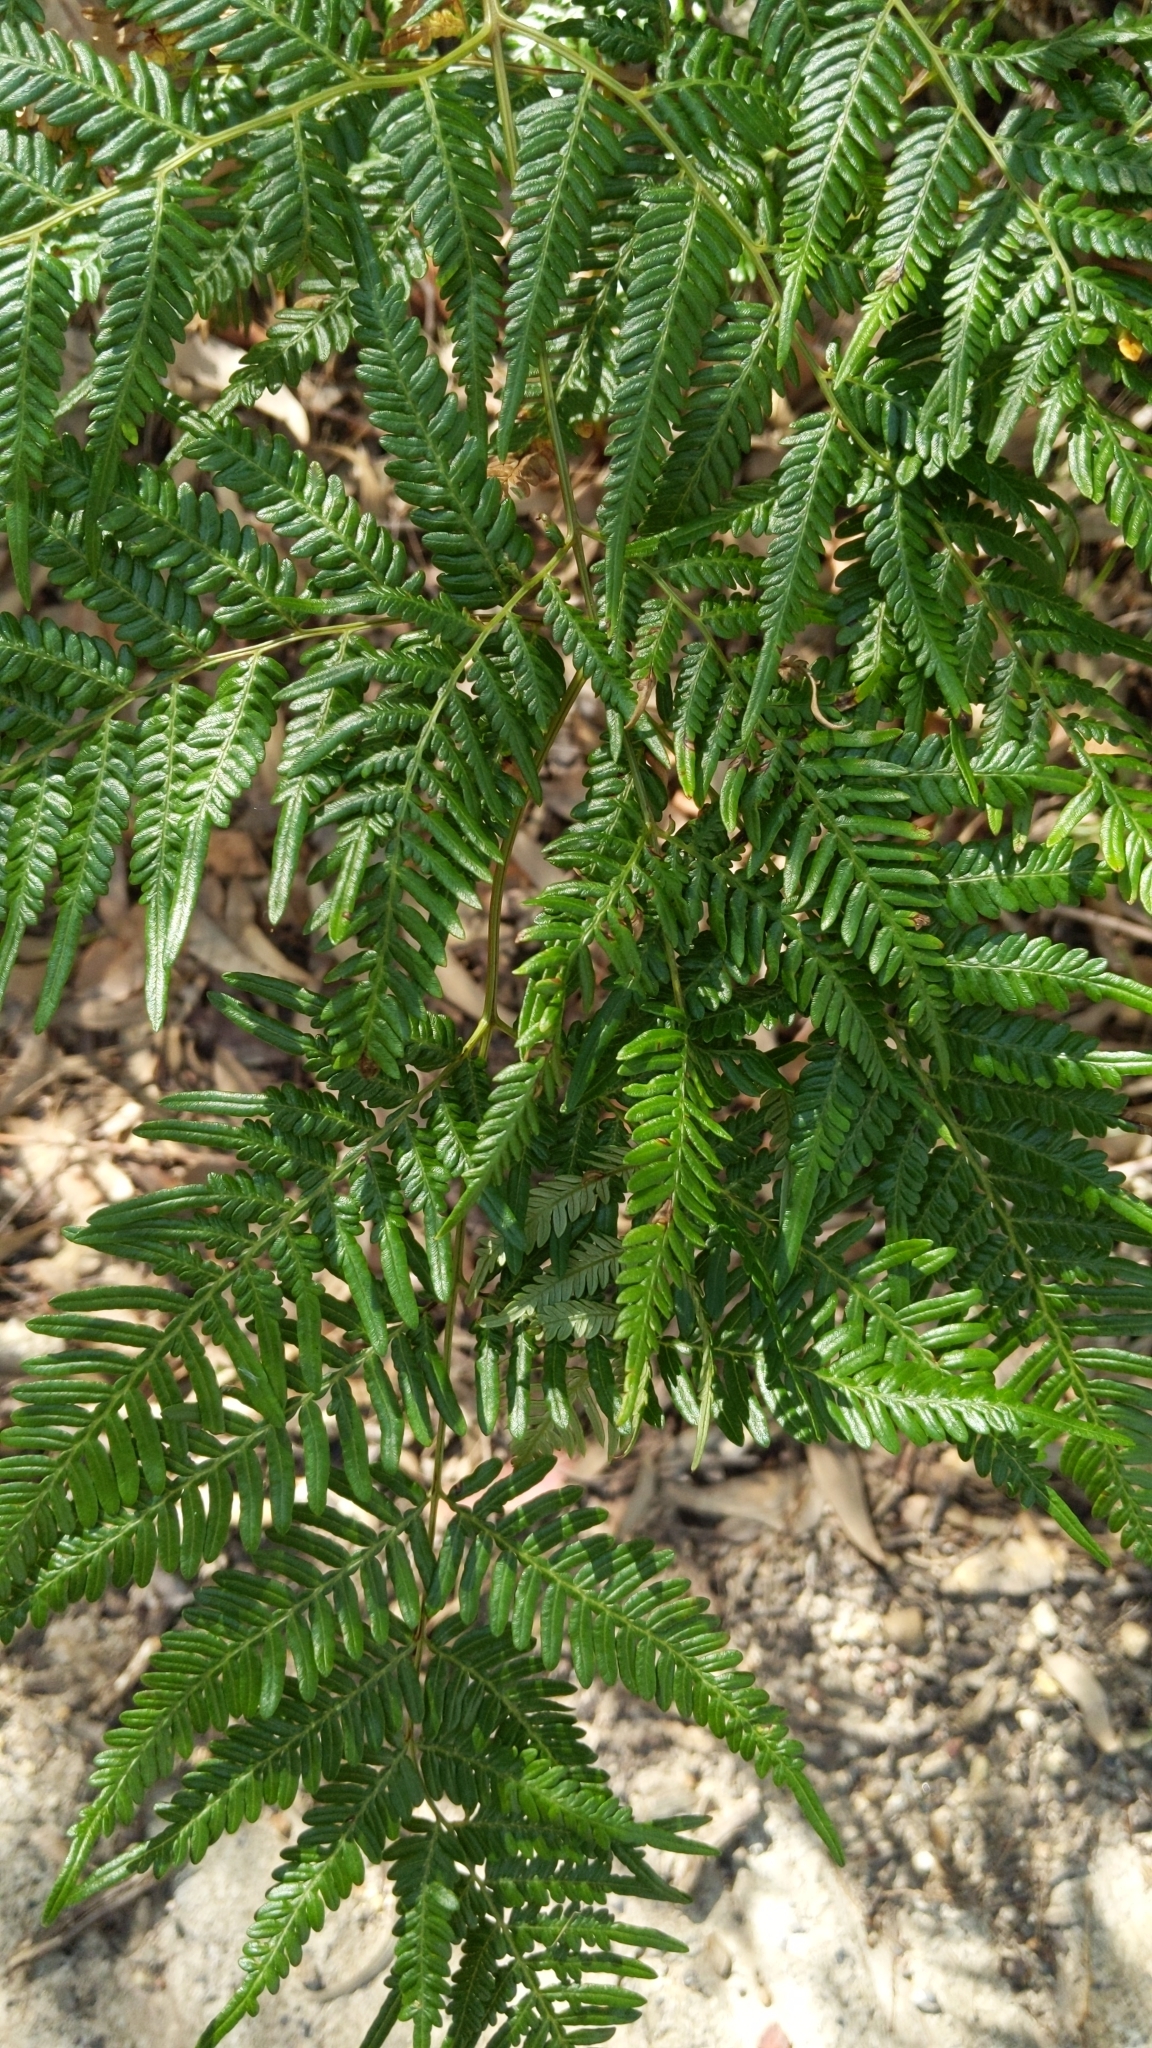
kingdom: Plantae
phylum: Tracheophyta
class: Polypodiopsida
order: Polypodiales
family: Dennstaedtiaceae
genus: Pteridium
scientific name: Pteridium esculentum
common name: Bracken fern
